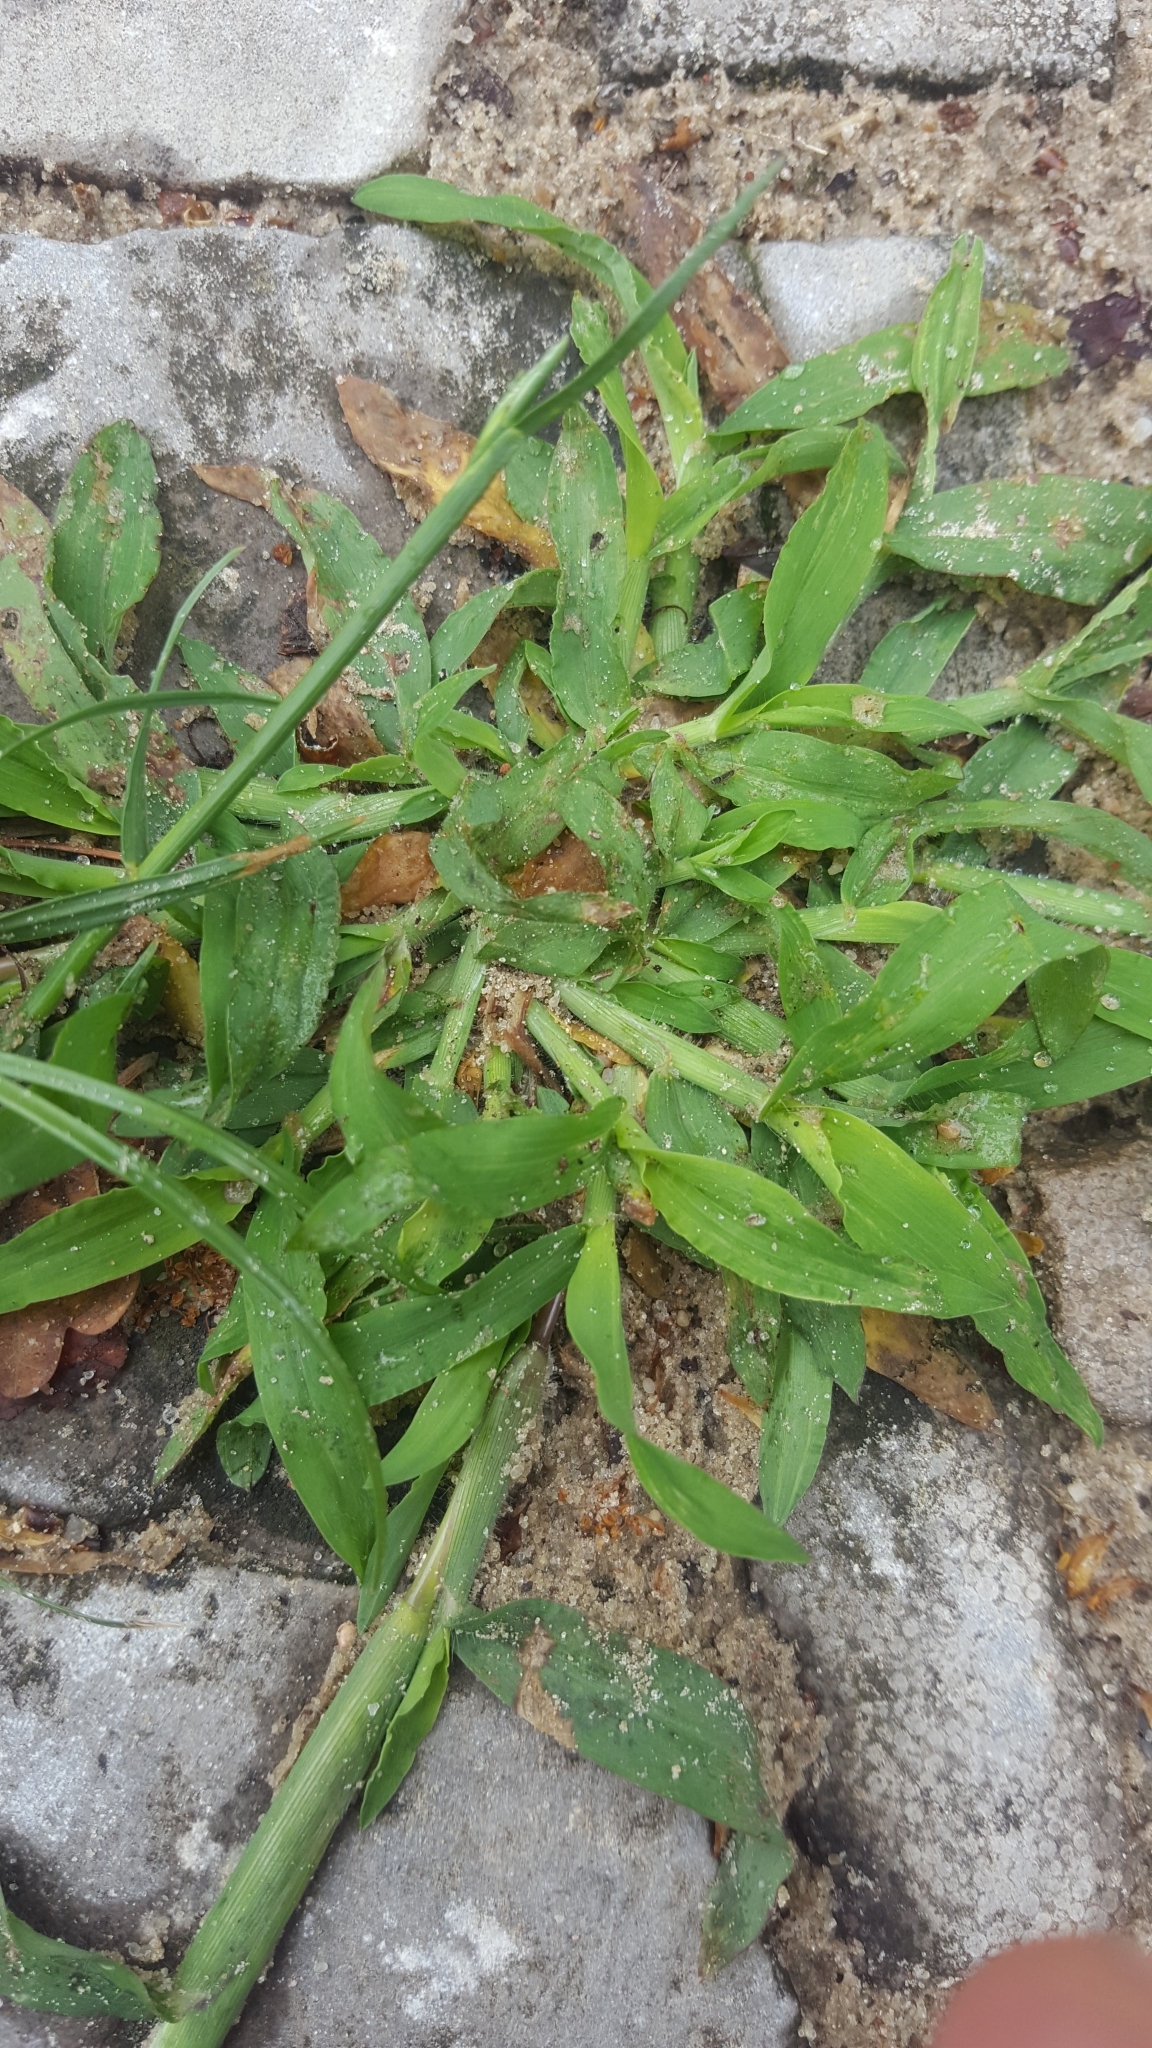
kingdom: Plantae
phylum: Tracheophyta
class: Liliopsida
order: Poales
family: Poaceae
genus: Digitaria
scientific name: Digitaria sanguinalis
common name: Hairy crabgrass
